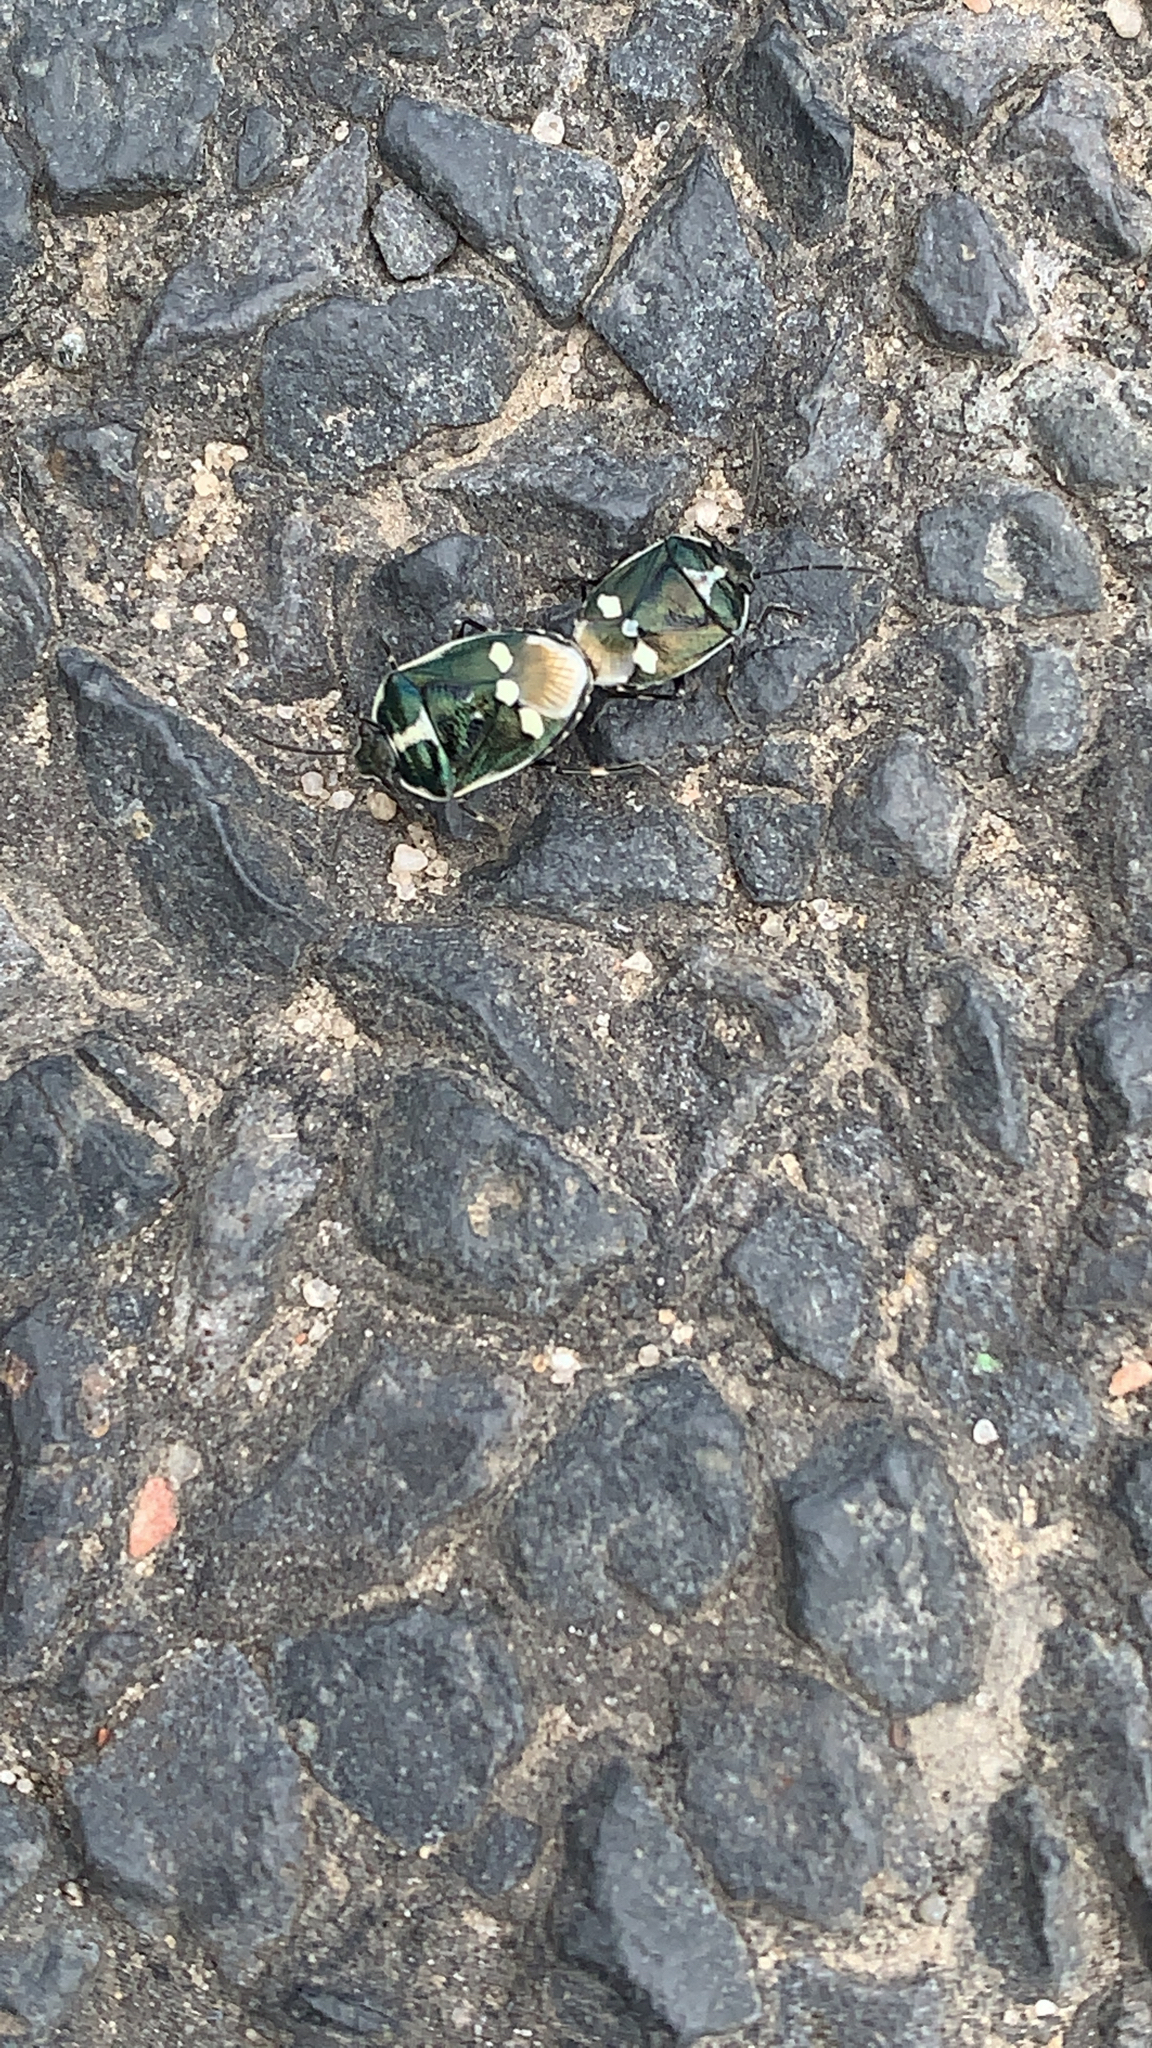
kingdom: Animalia
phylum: Arthropoda
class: Insecta
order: Hemiptera
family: Pentatomidae
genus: Eurydema
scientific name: Eurydema oleracea
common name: Cabbage bug
